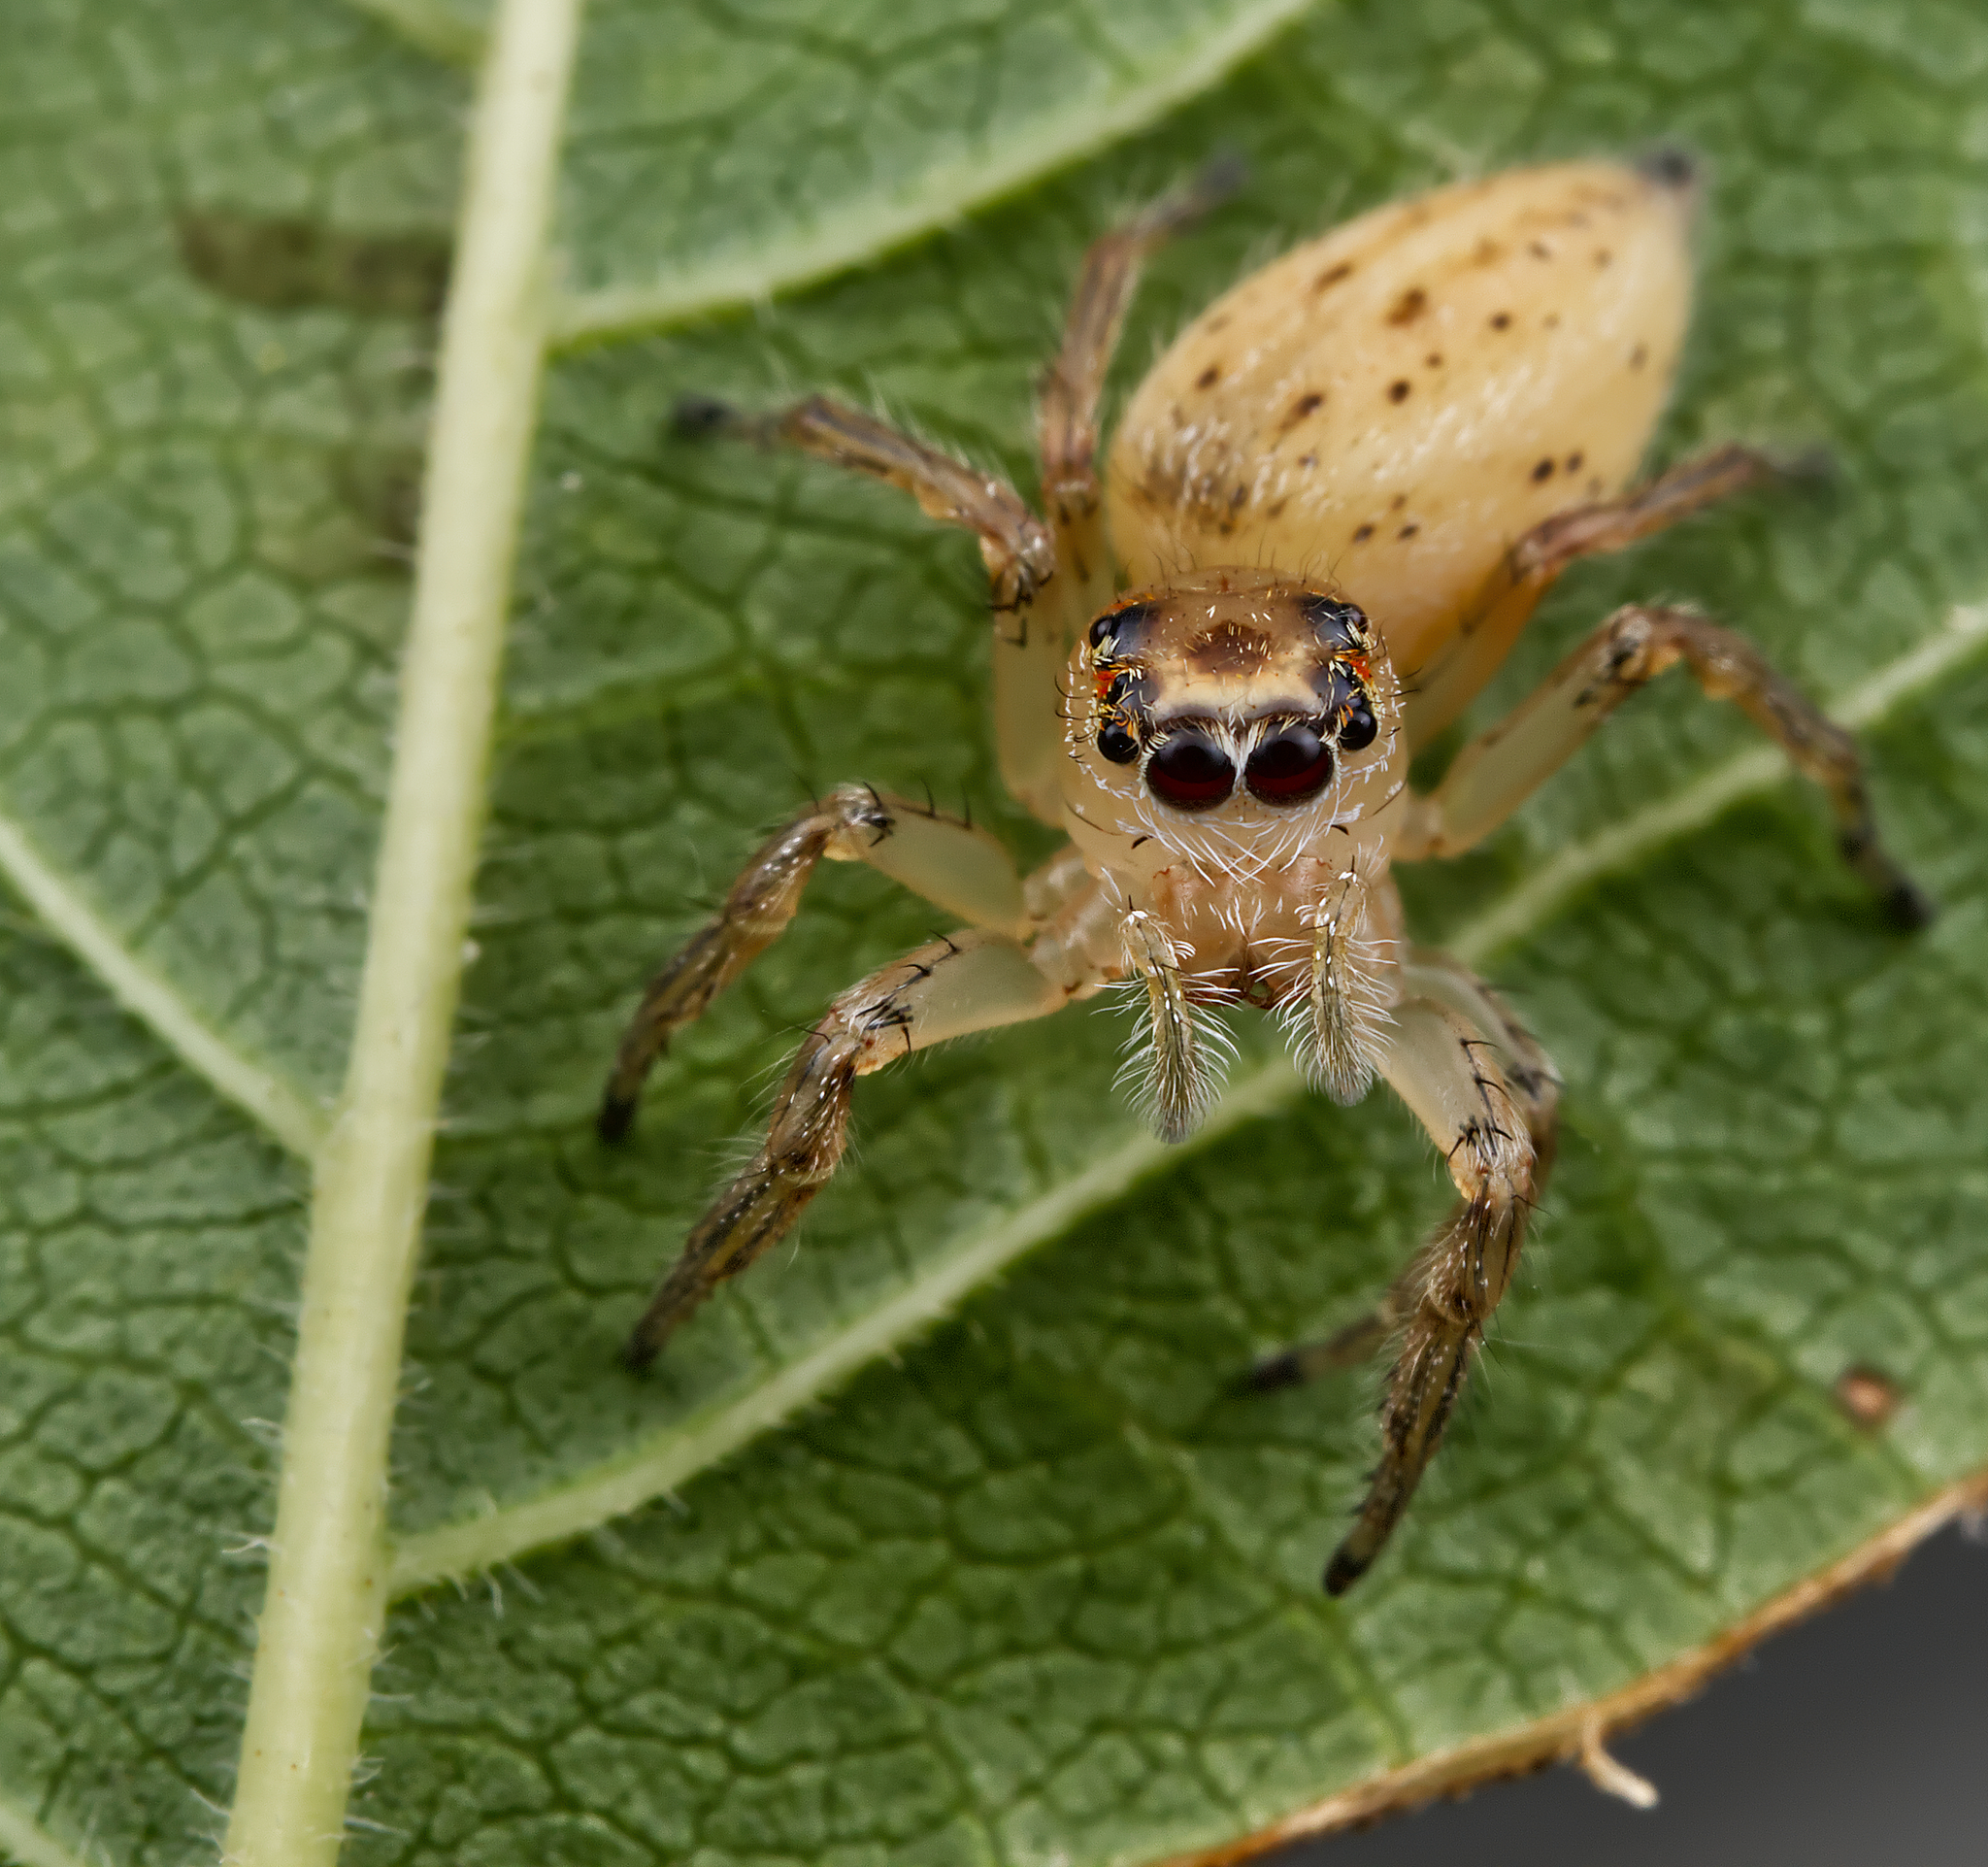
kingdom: Animalia
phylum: Arthropoda
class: Arachnida
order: Araneae
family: Salticidae
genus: Colonus
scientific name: Colonus sylvanus
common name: Jumping spiders
